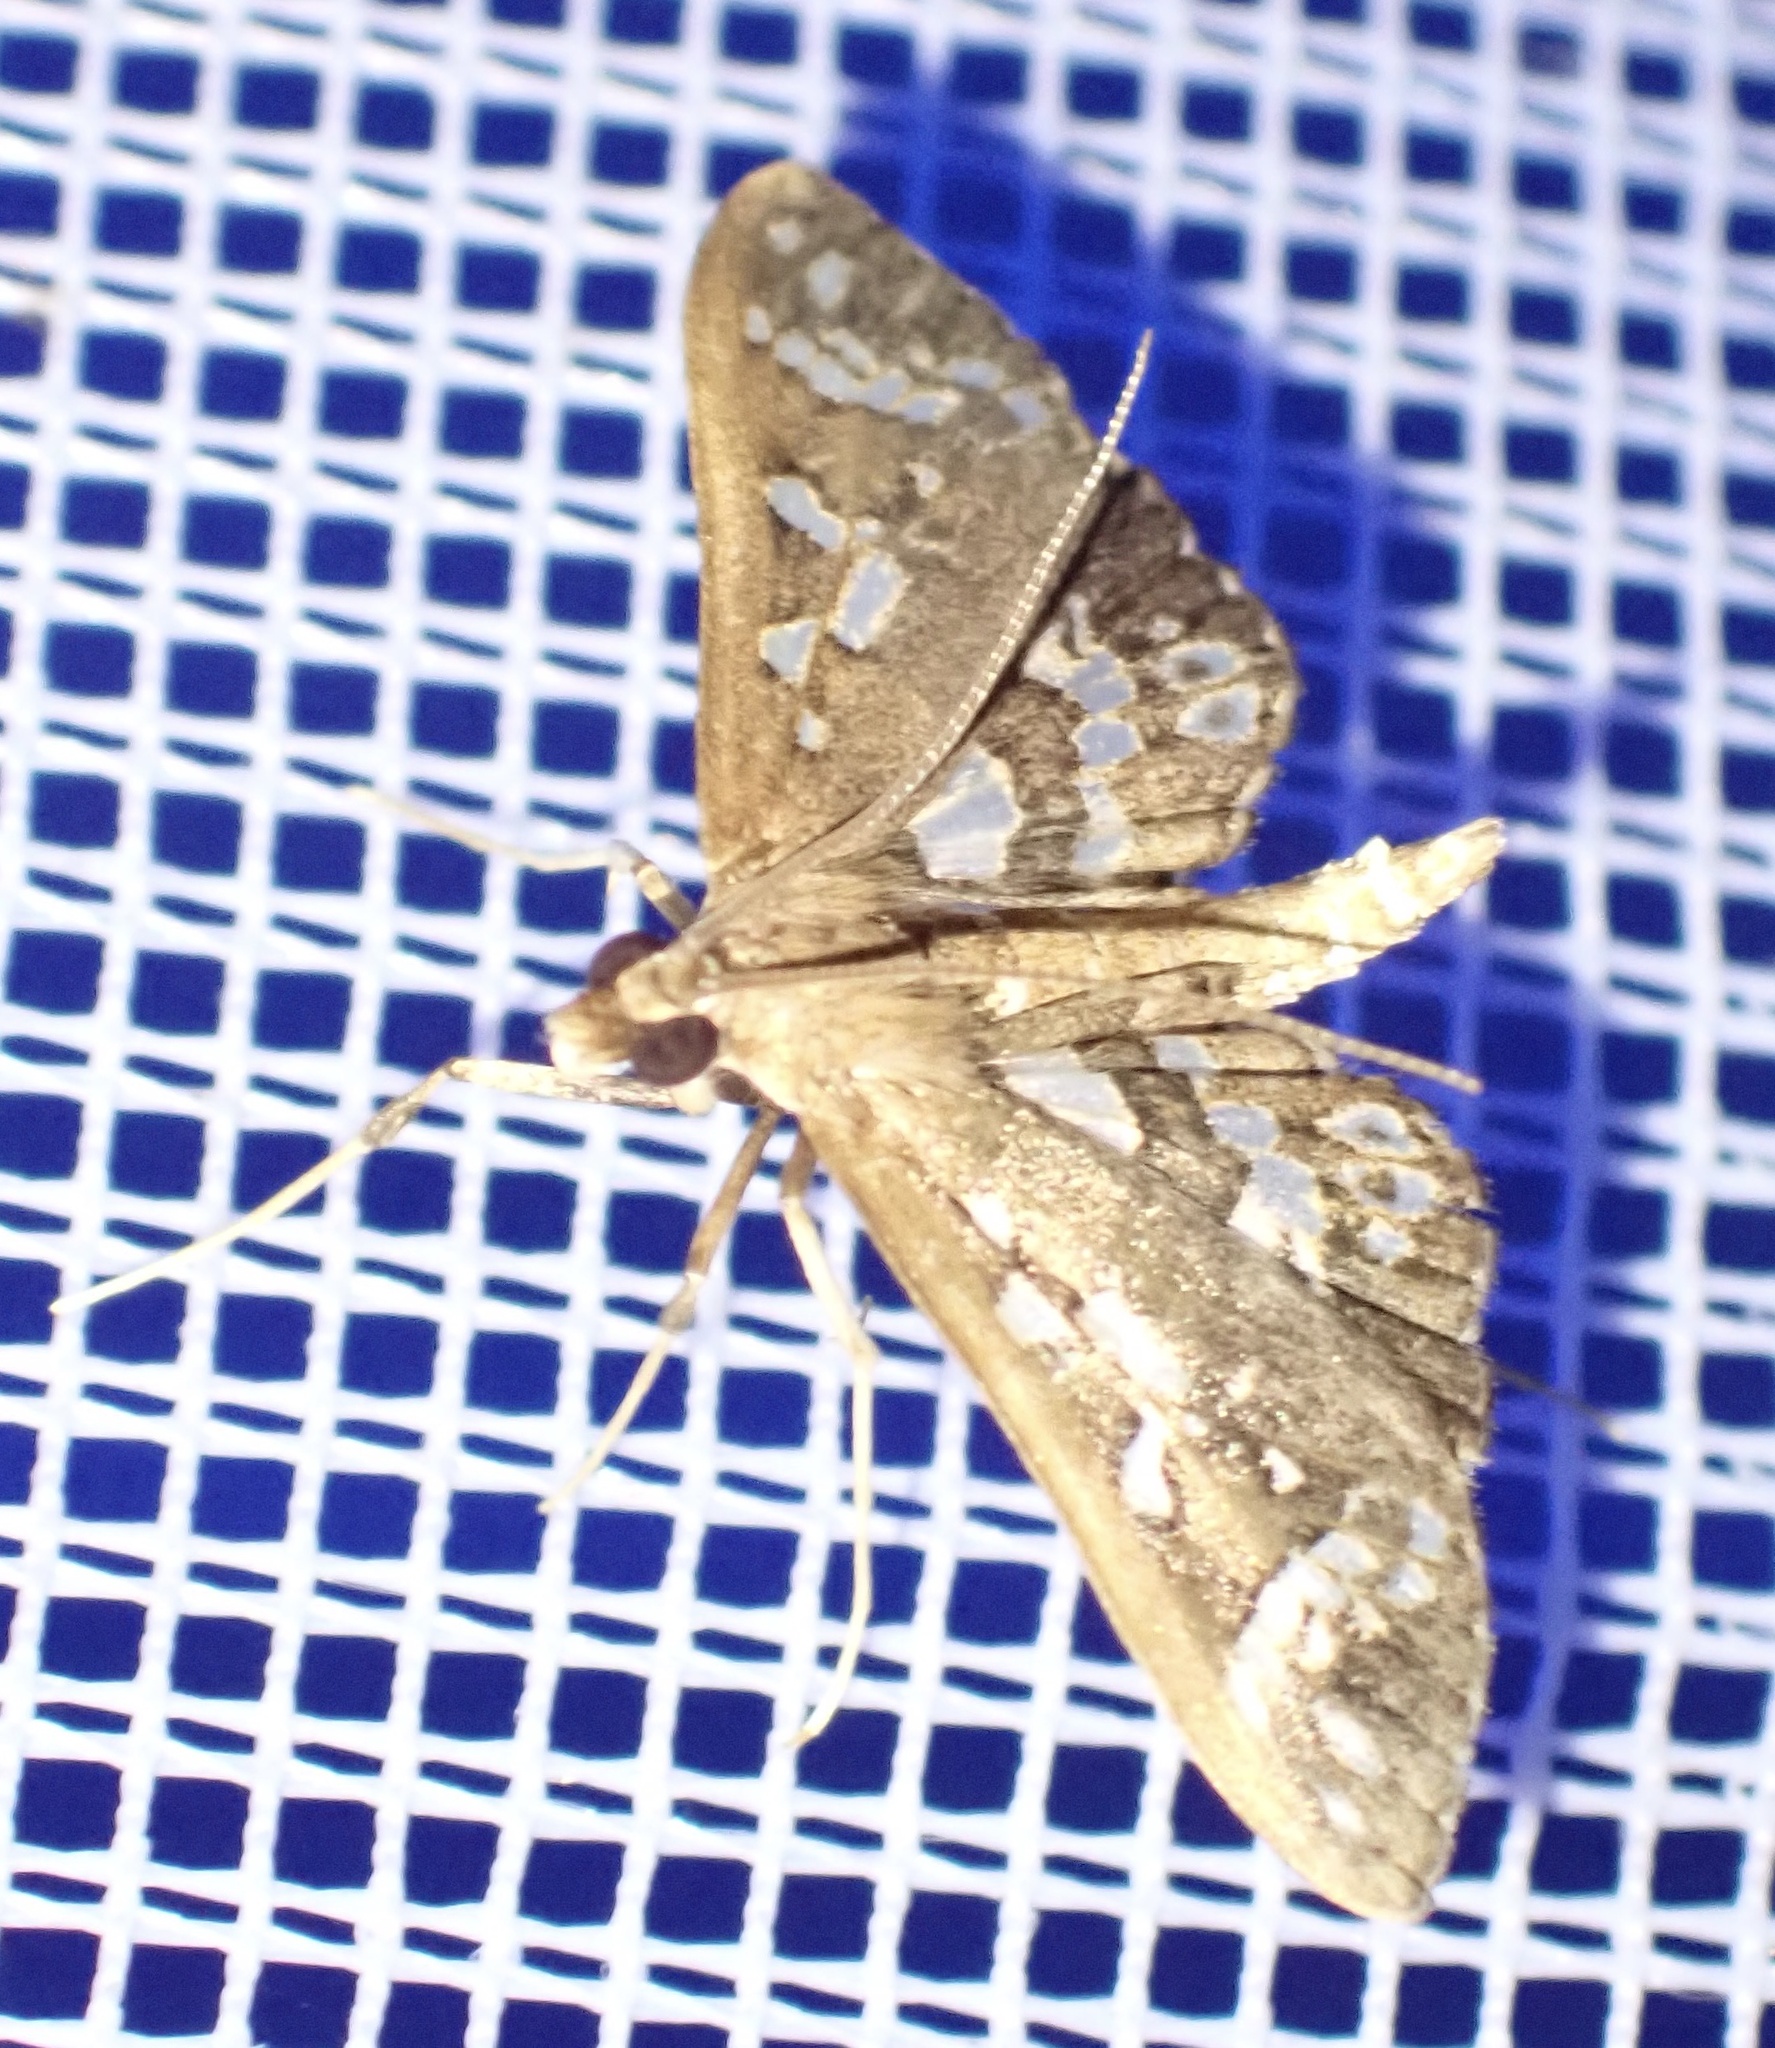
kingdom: Animalia
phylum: Arthropoda
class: Insecta
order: Lepidoptera
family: Crambidae
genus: Ischnurges
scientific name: Ischnurges illustralis
